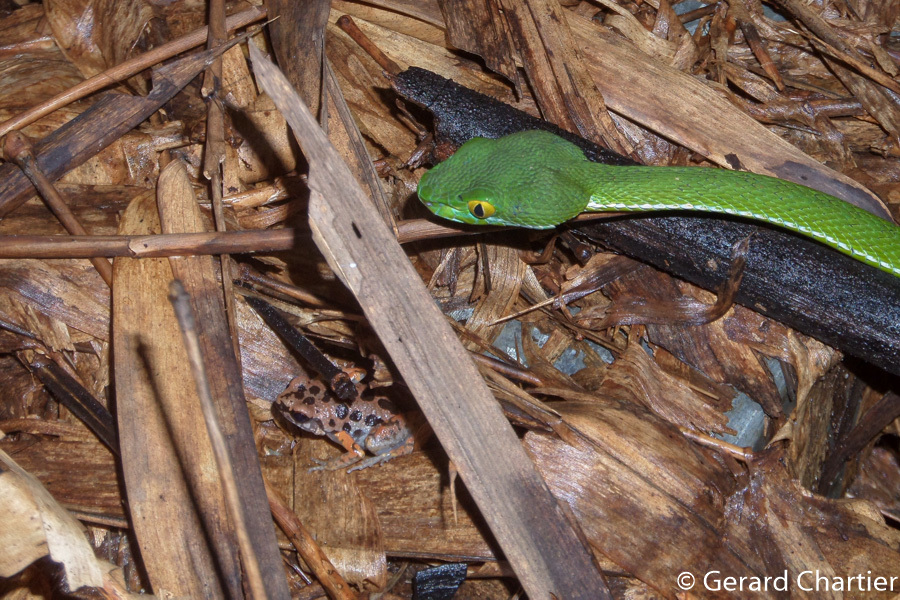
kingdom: Animalia
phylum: Chordata
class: Squamata
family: Viperidae
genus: Trimeresurus
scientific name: Trimeresurus cardamomensis
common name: Cardamom mountains green pitviper
